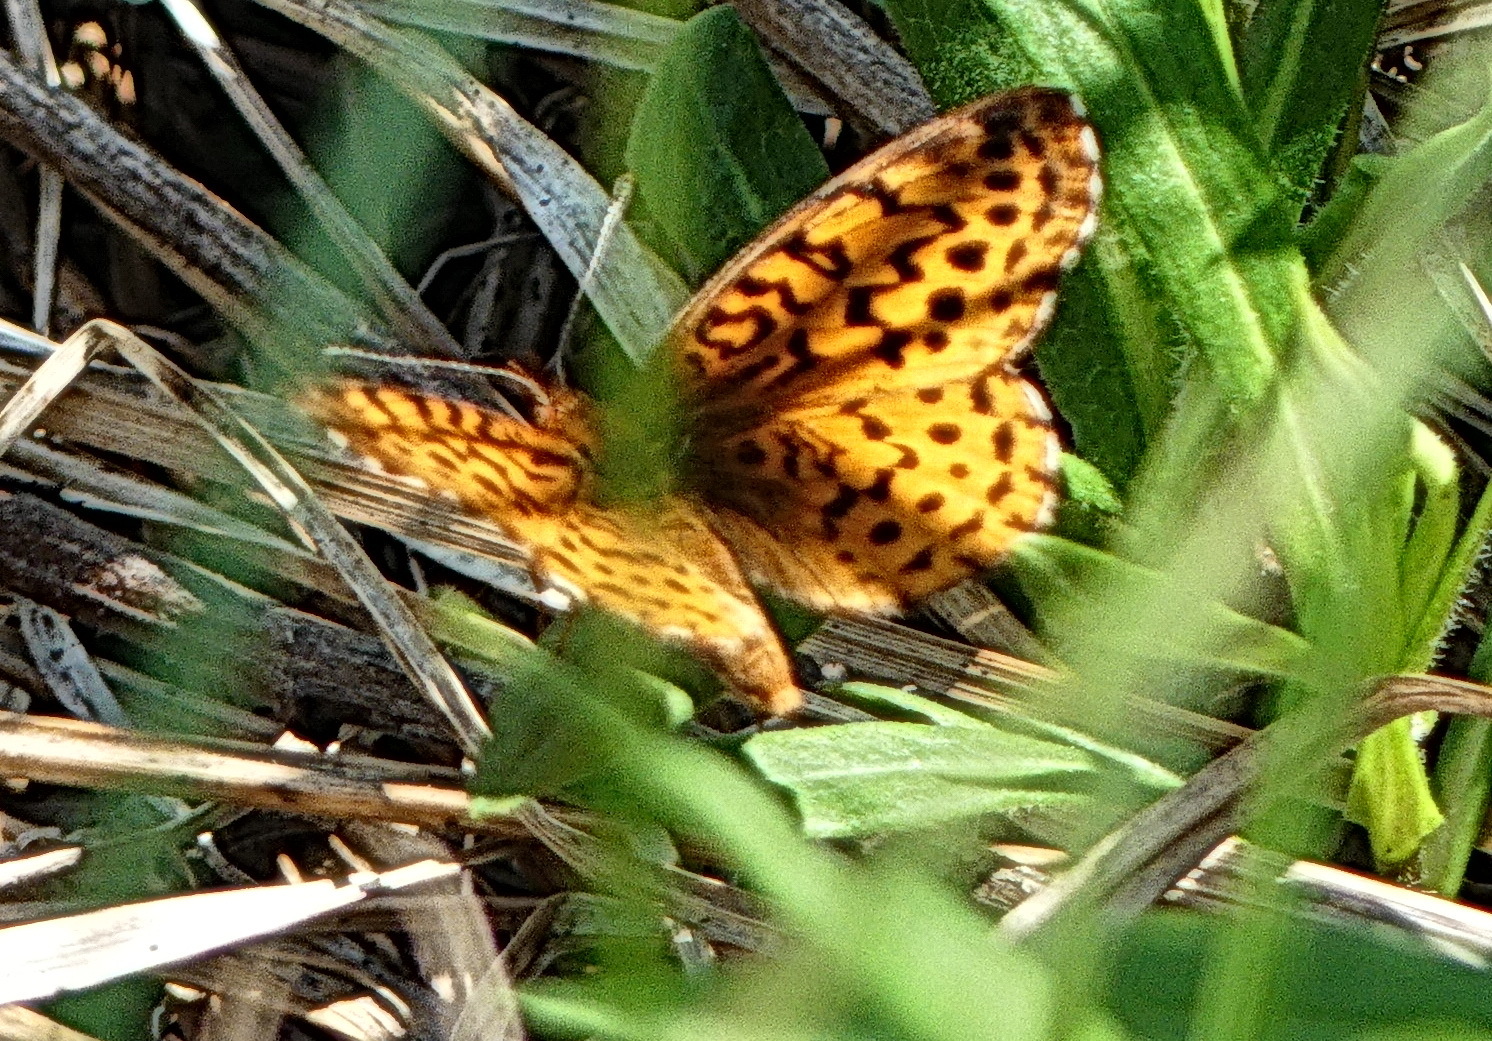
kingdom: Animalia
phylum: Arthropoda
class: Insecta
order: Lepidoptera
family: Nymphalidae
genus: Clossiana
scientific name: Clossiana toddi
